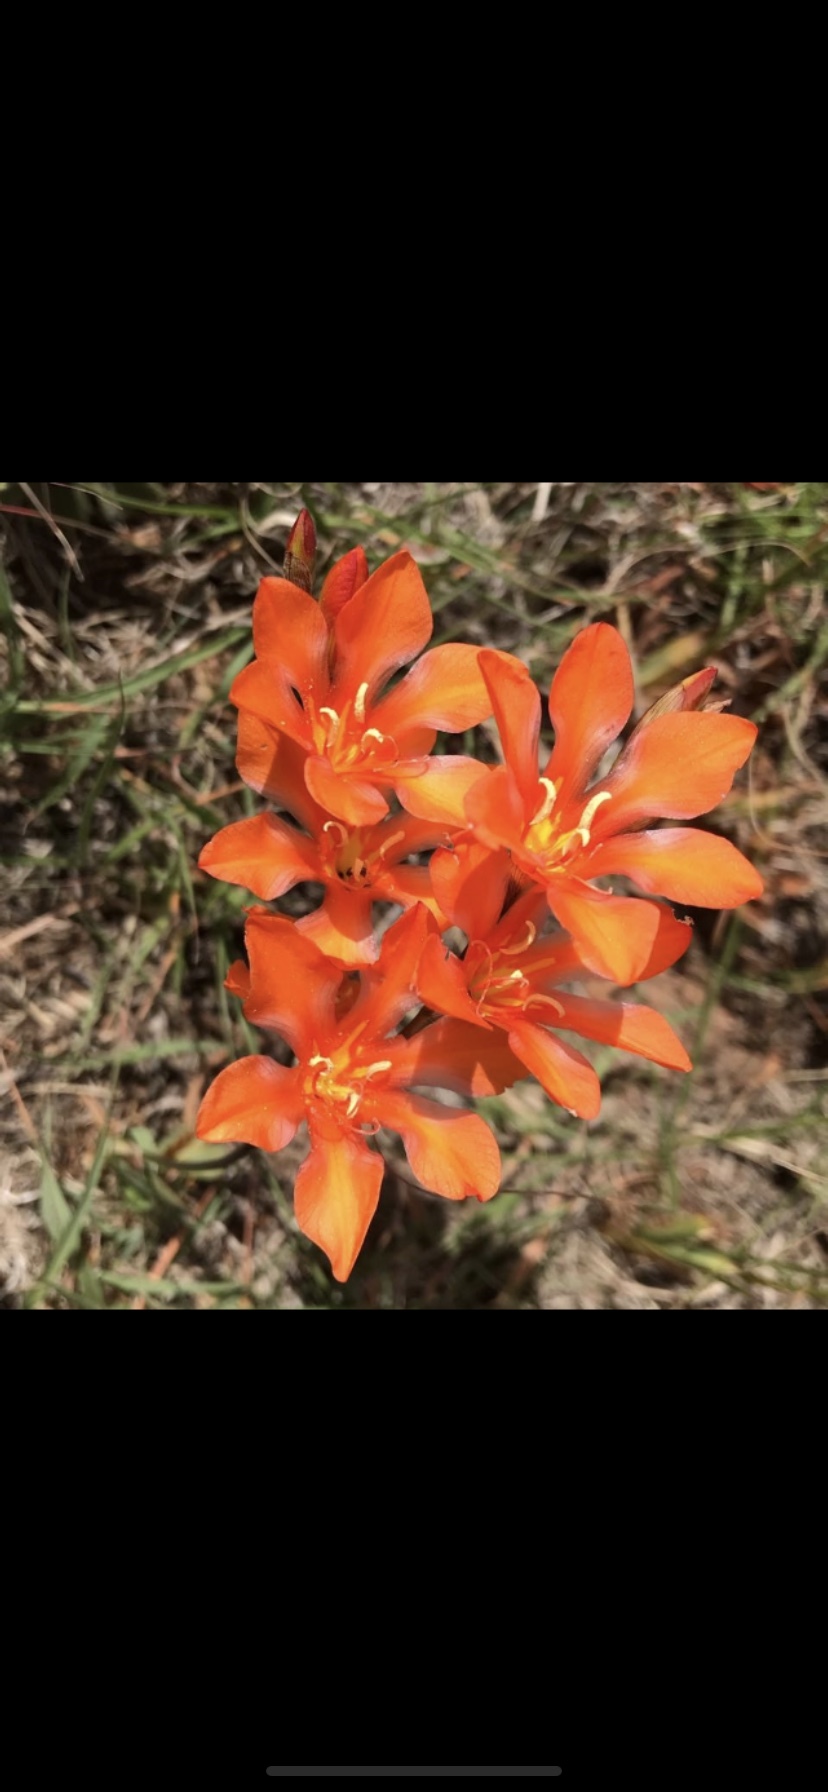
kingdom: Plantae
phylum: Tracheophyta
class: Liliopsida
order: Asparagales
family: Iridaceae
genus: Tritonia
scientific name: Tritonia crocata
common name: Flame-freesia
